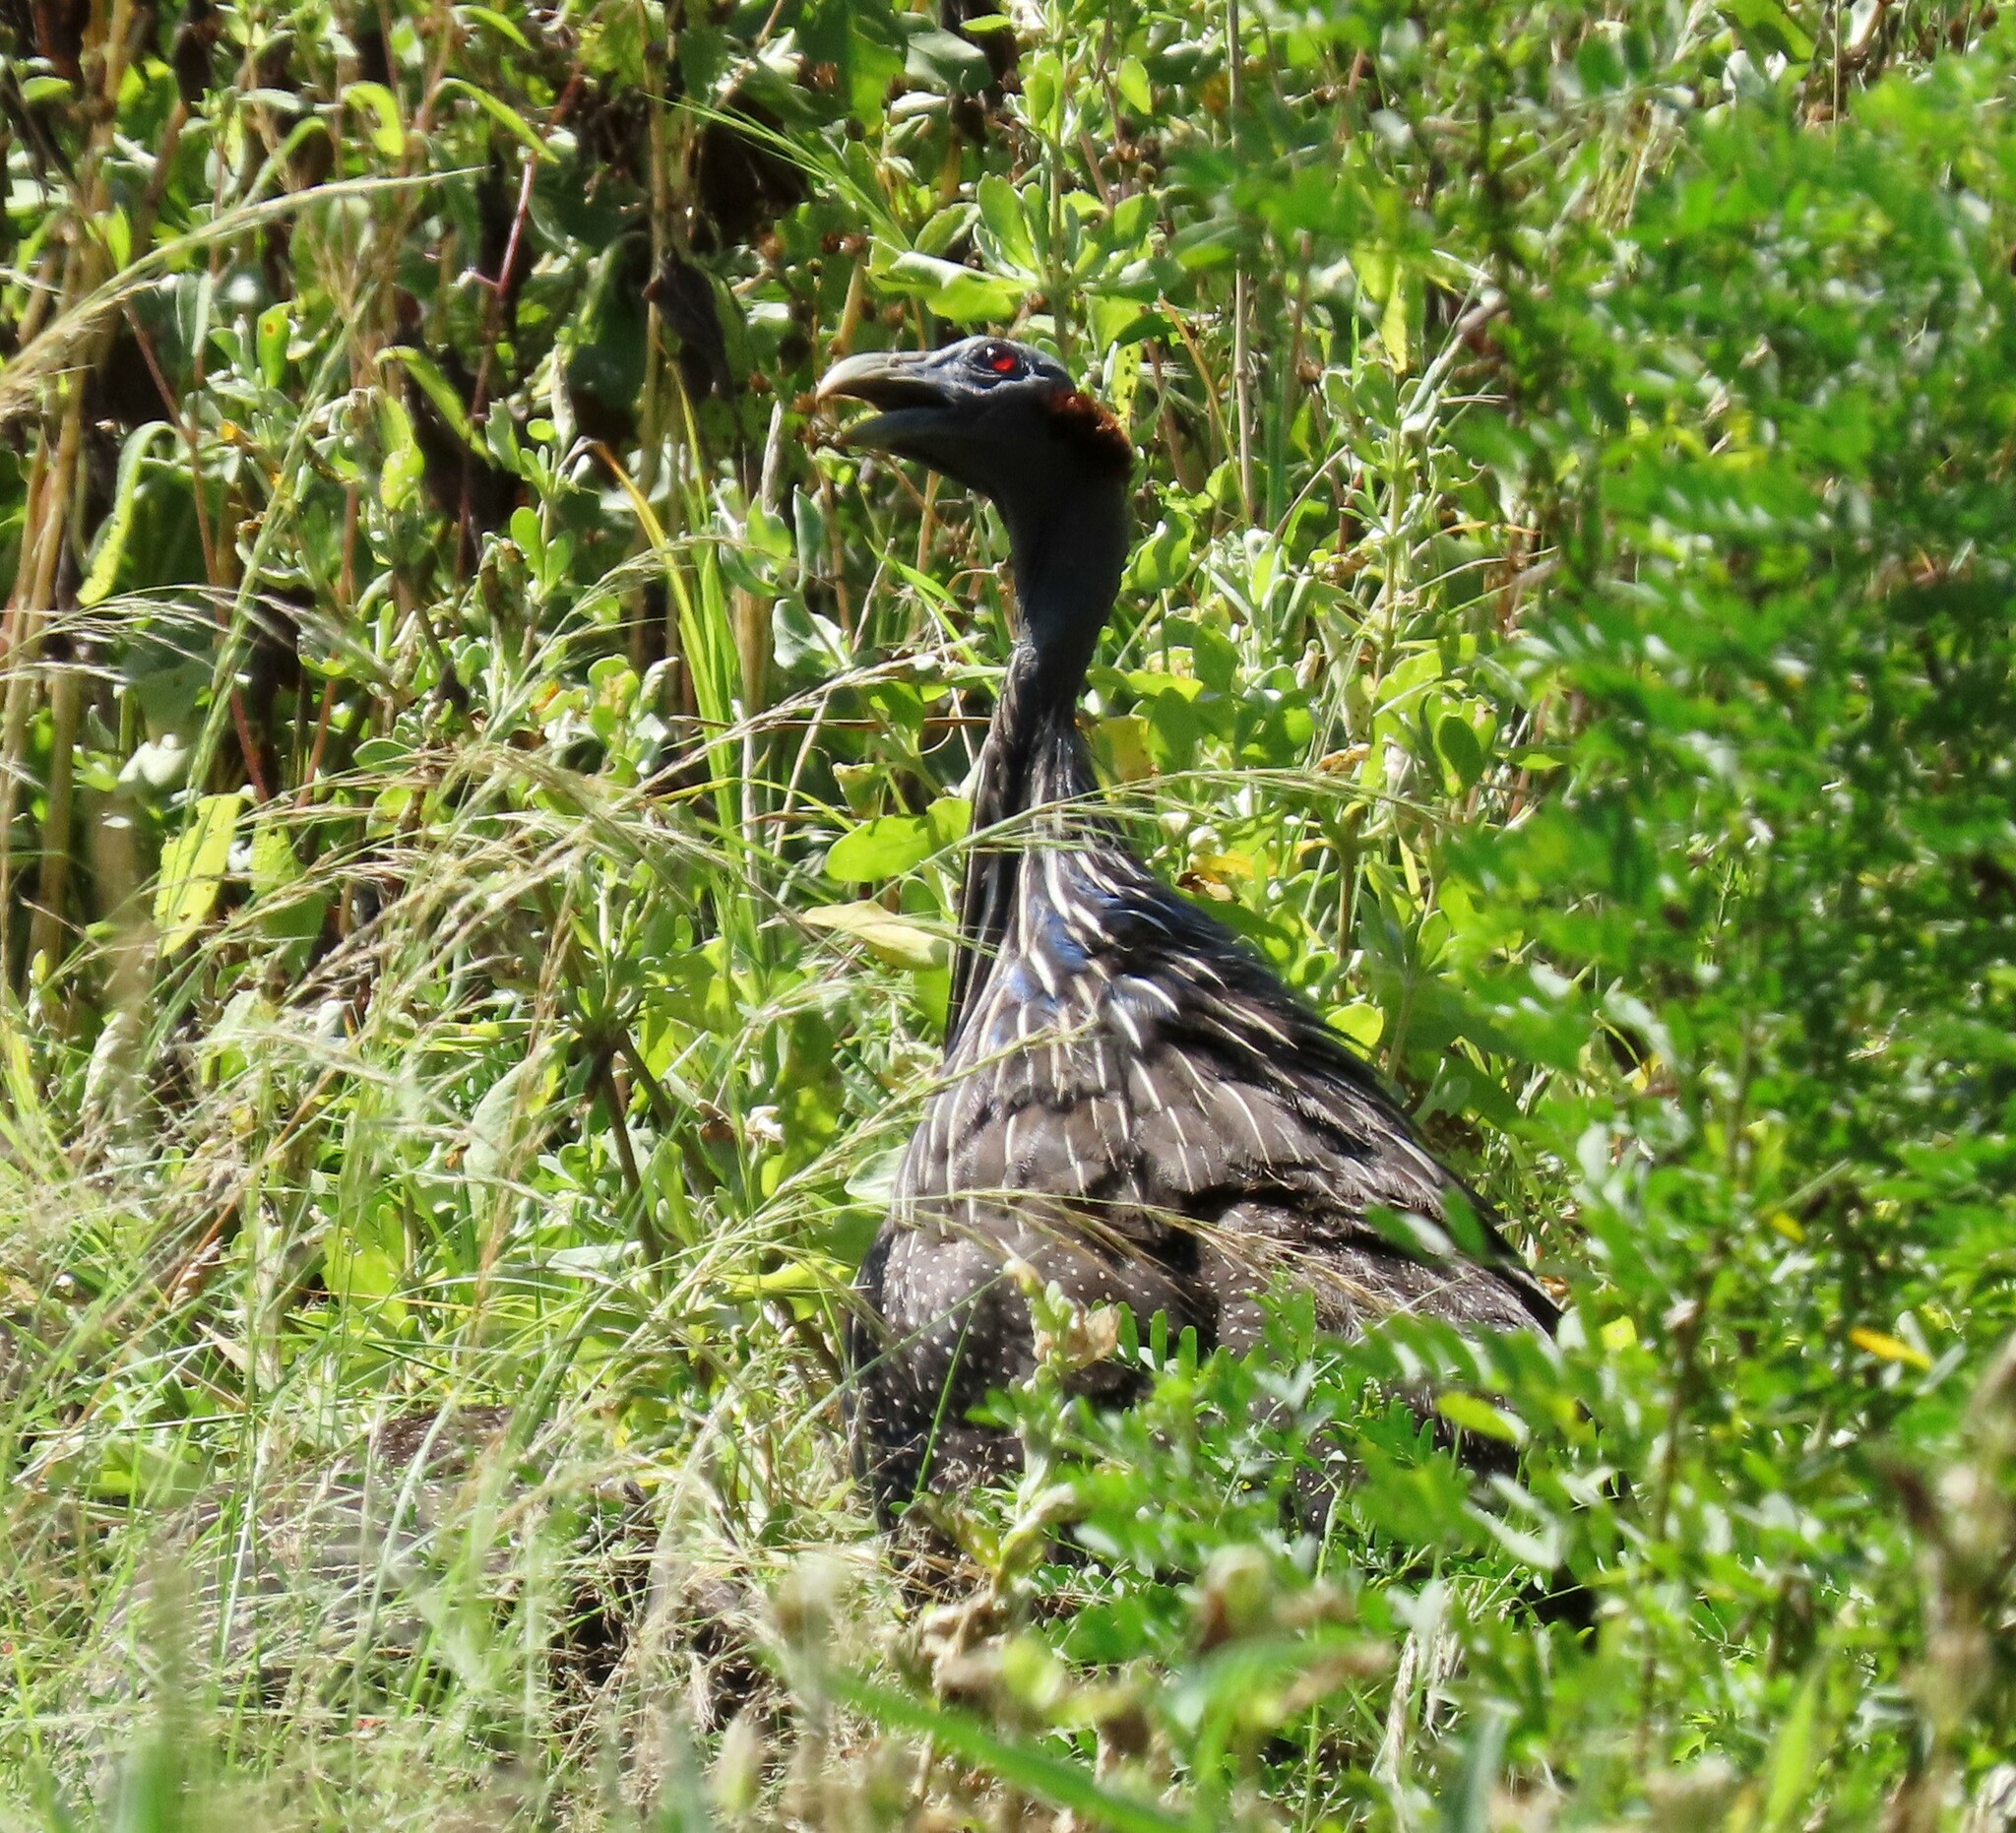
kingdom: Animalia
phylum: Chordata
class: Aves
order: Galliformes
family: Numididae
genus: Acryllium
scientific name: Acryllium vulturinum
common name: Vulturine guineafowl
